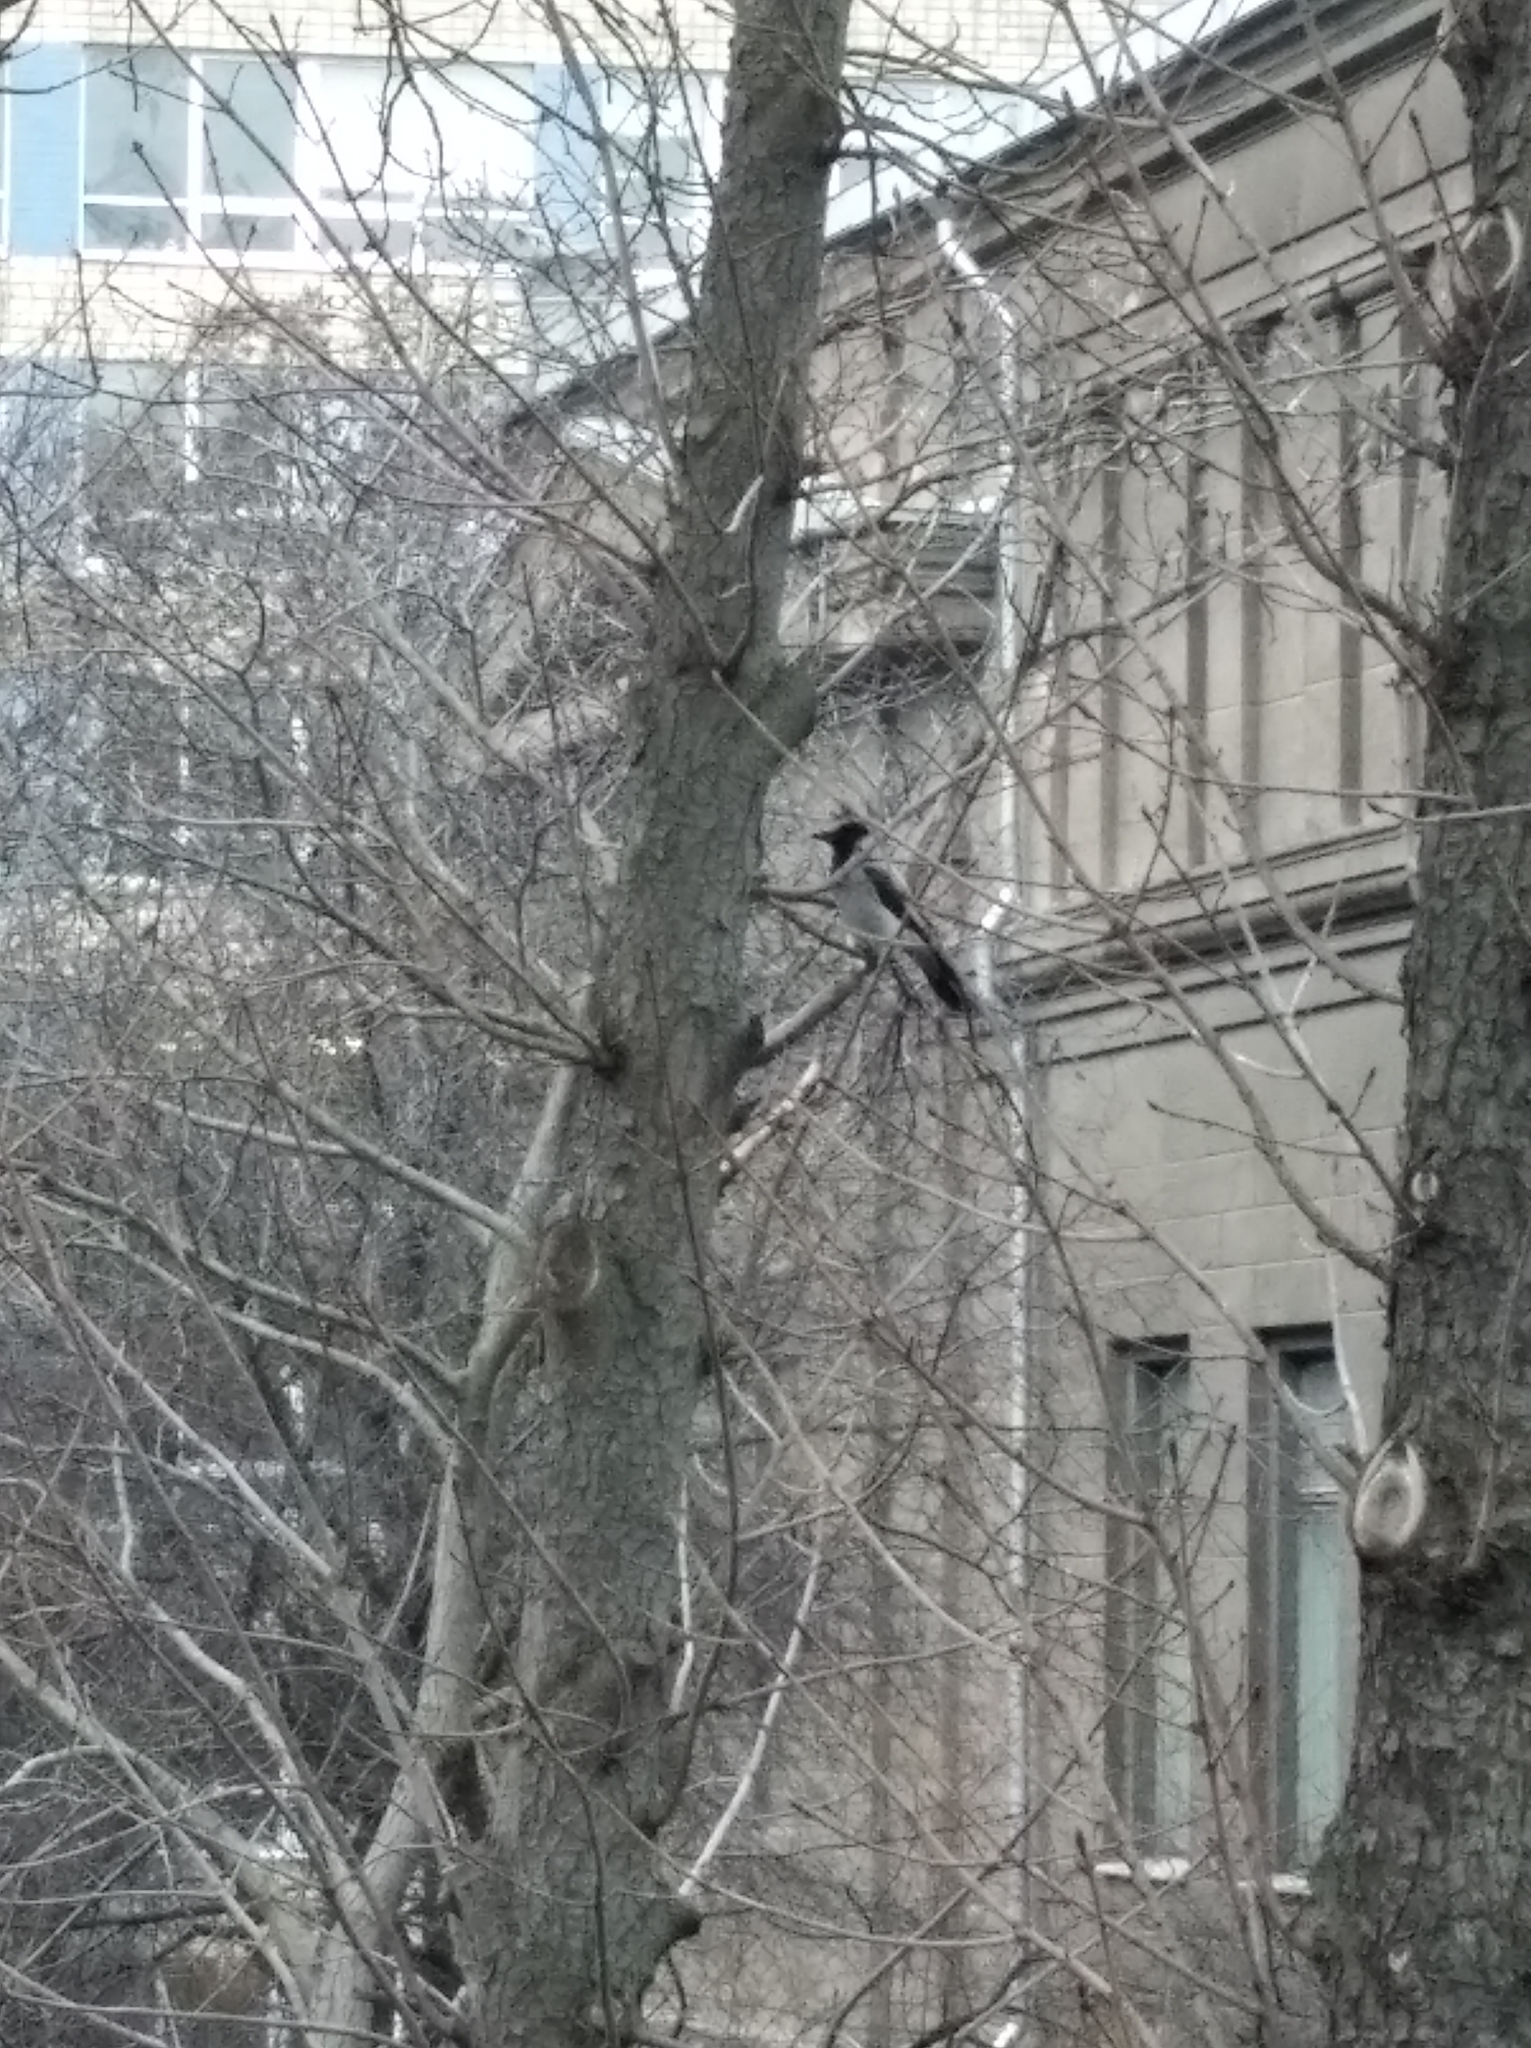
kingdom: Animalia
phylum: Chordata
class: Aves
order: Passeriformes
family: Corvidae
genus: Corvus
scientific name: Corvus cornix
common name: Hooded crow
